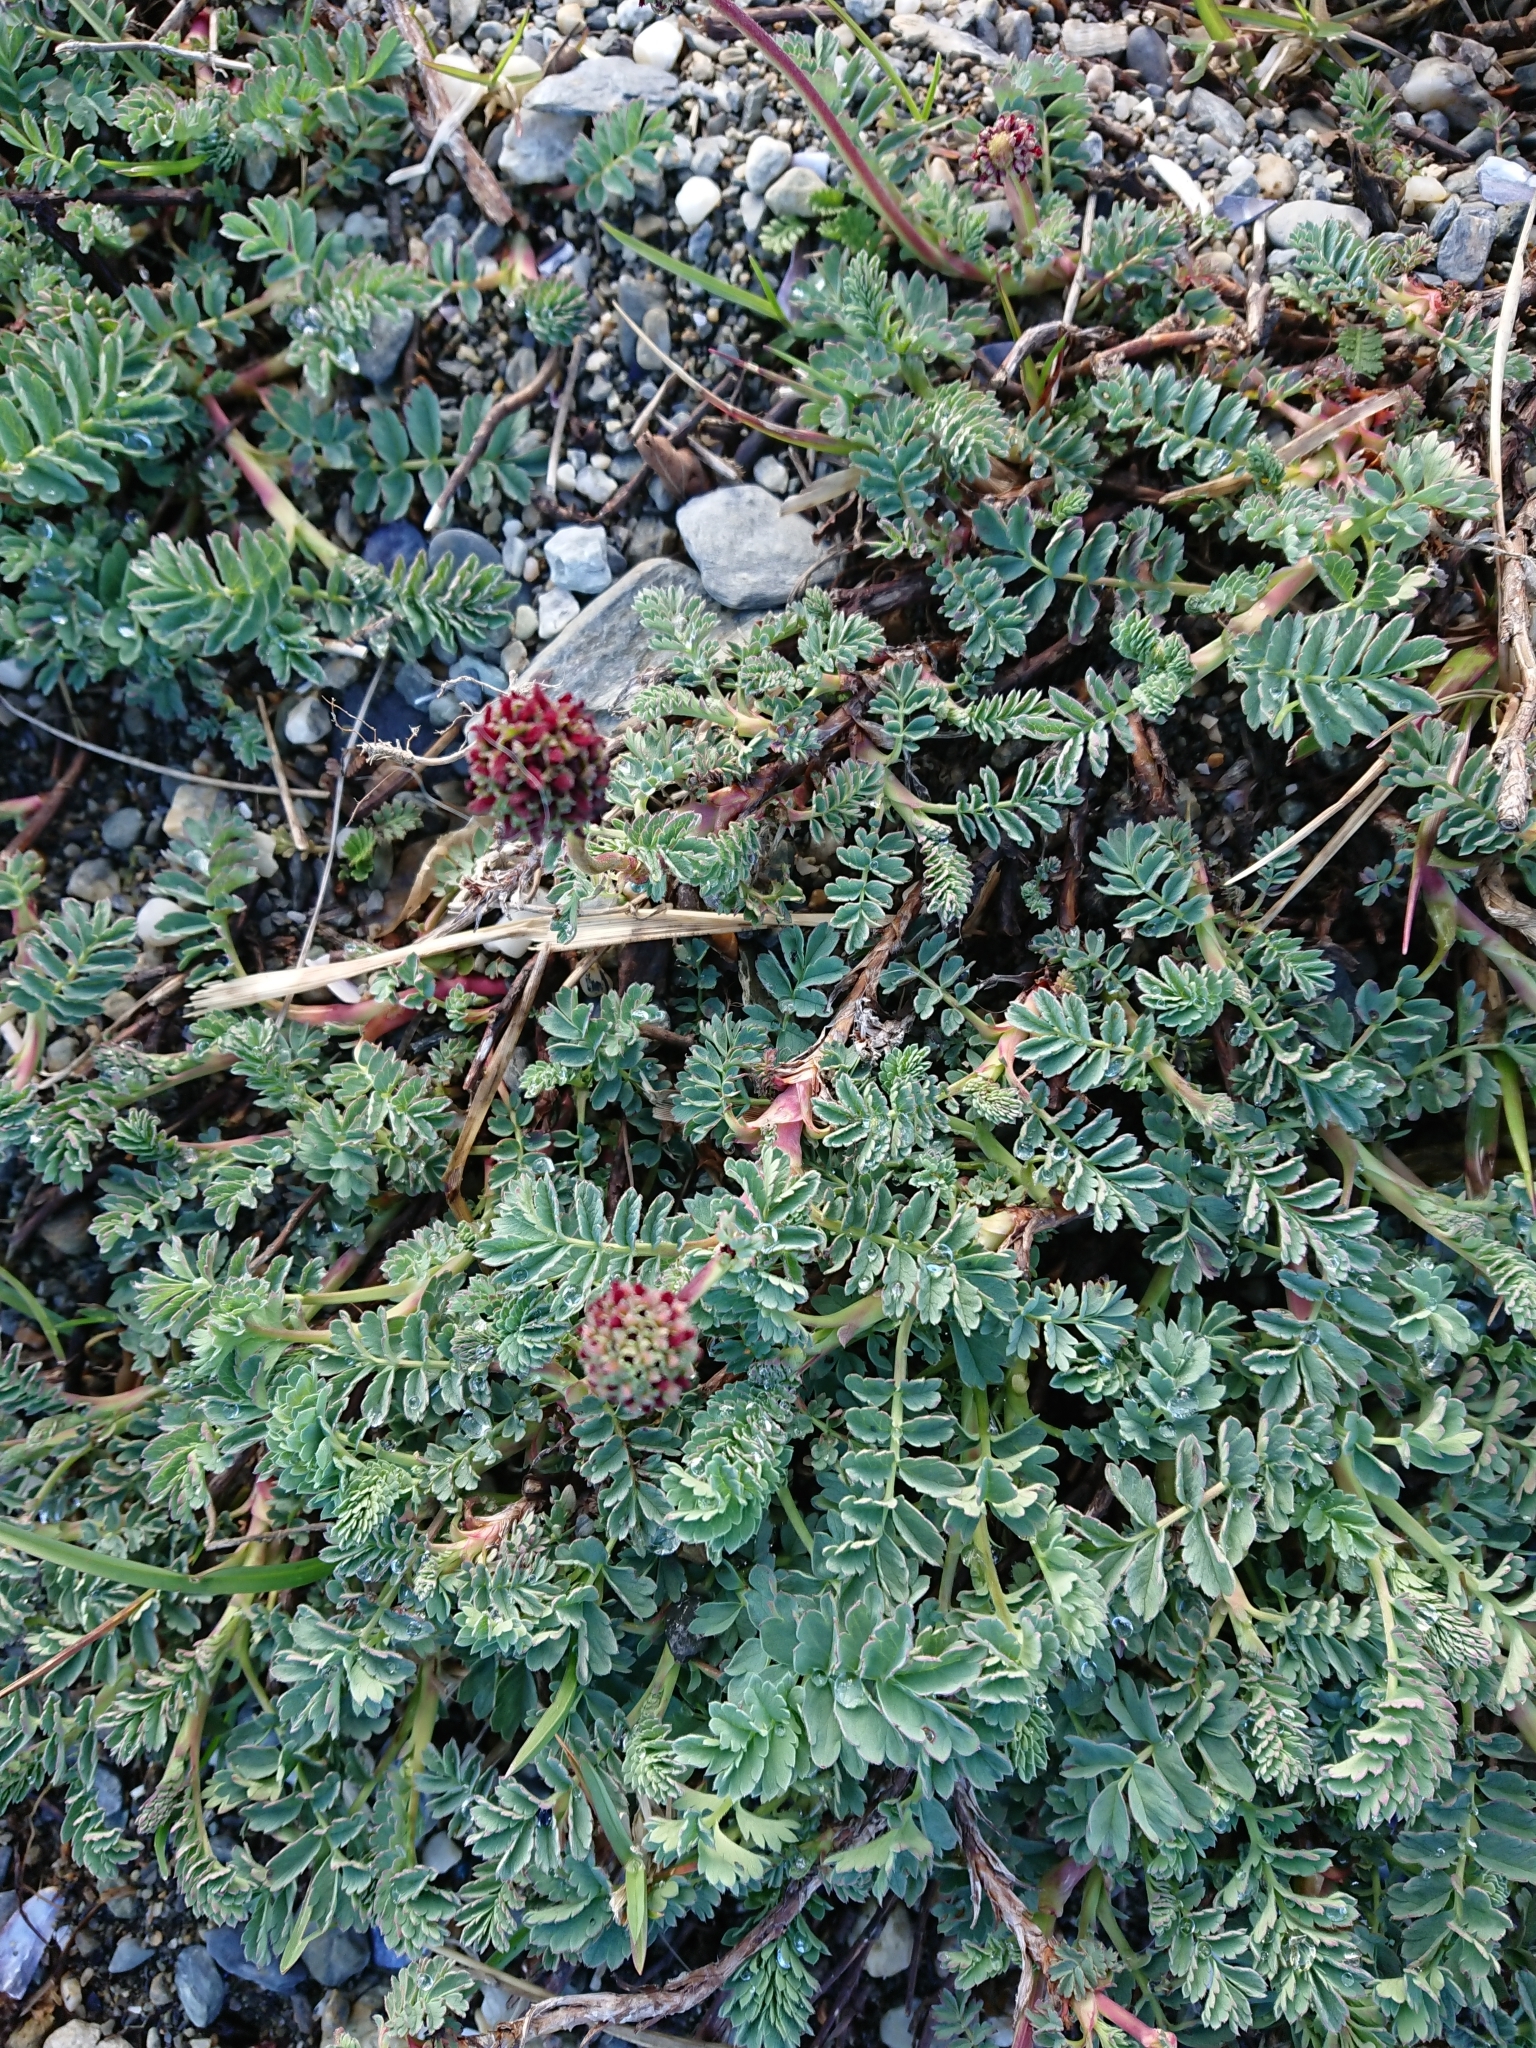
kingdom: Plantae
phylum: Tracheophyta
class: Magnoliopsida
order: Rosales
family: Rosaceae
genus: Acaena
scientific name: Acaena magellanica
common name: New zealand burr
